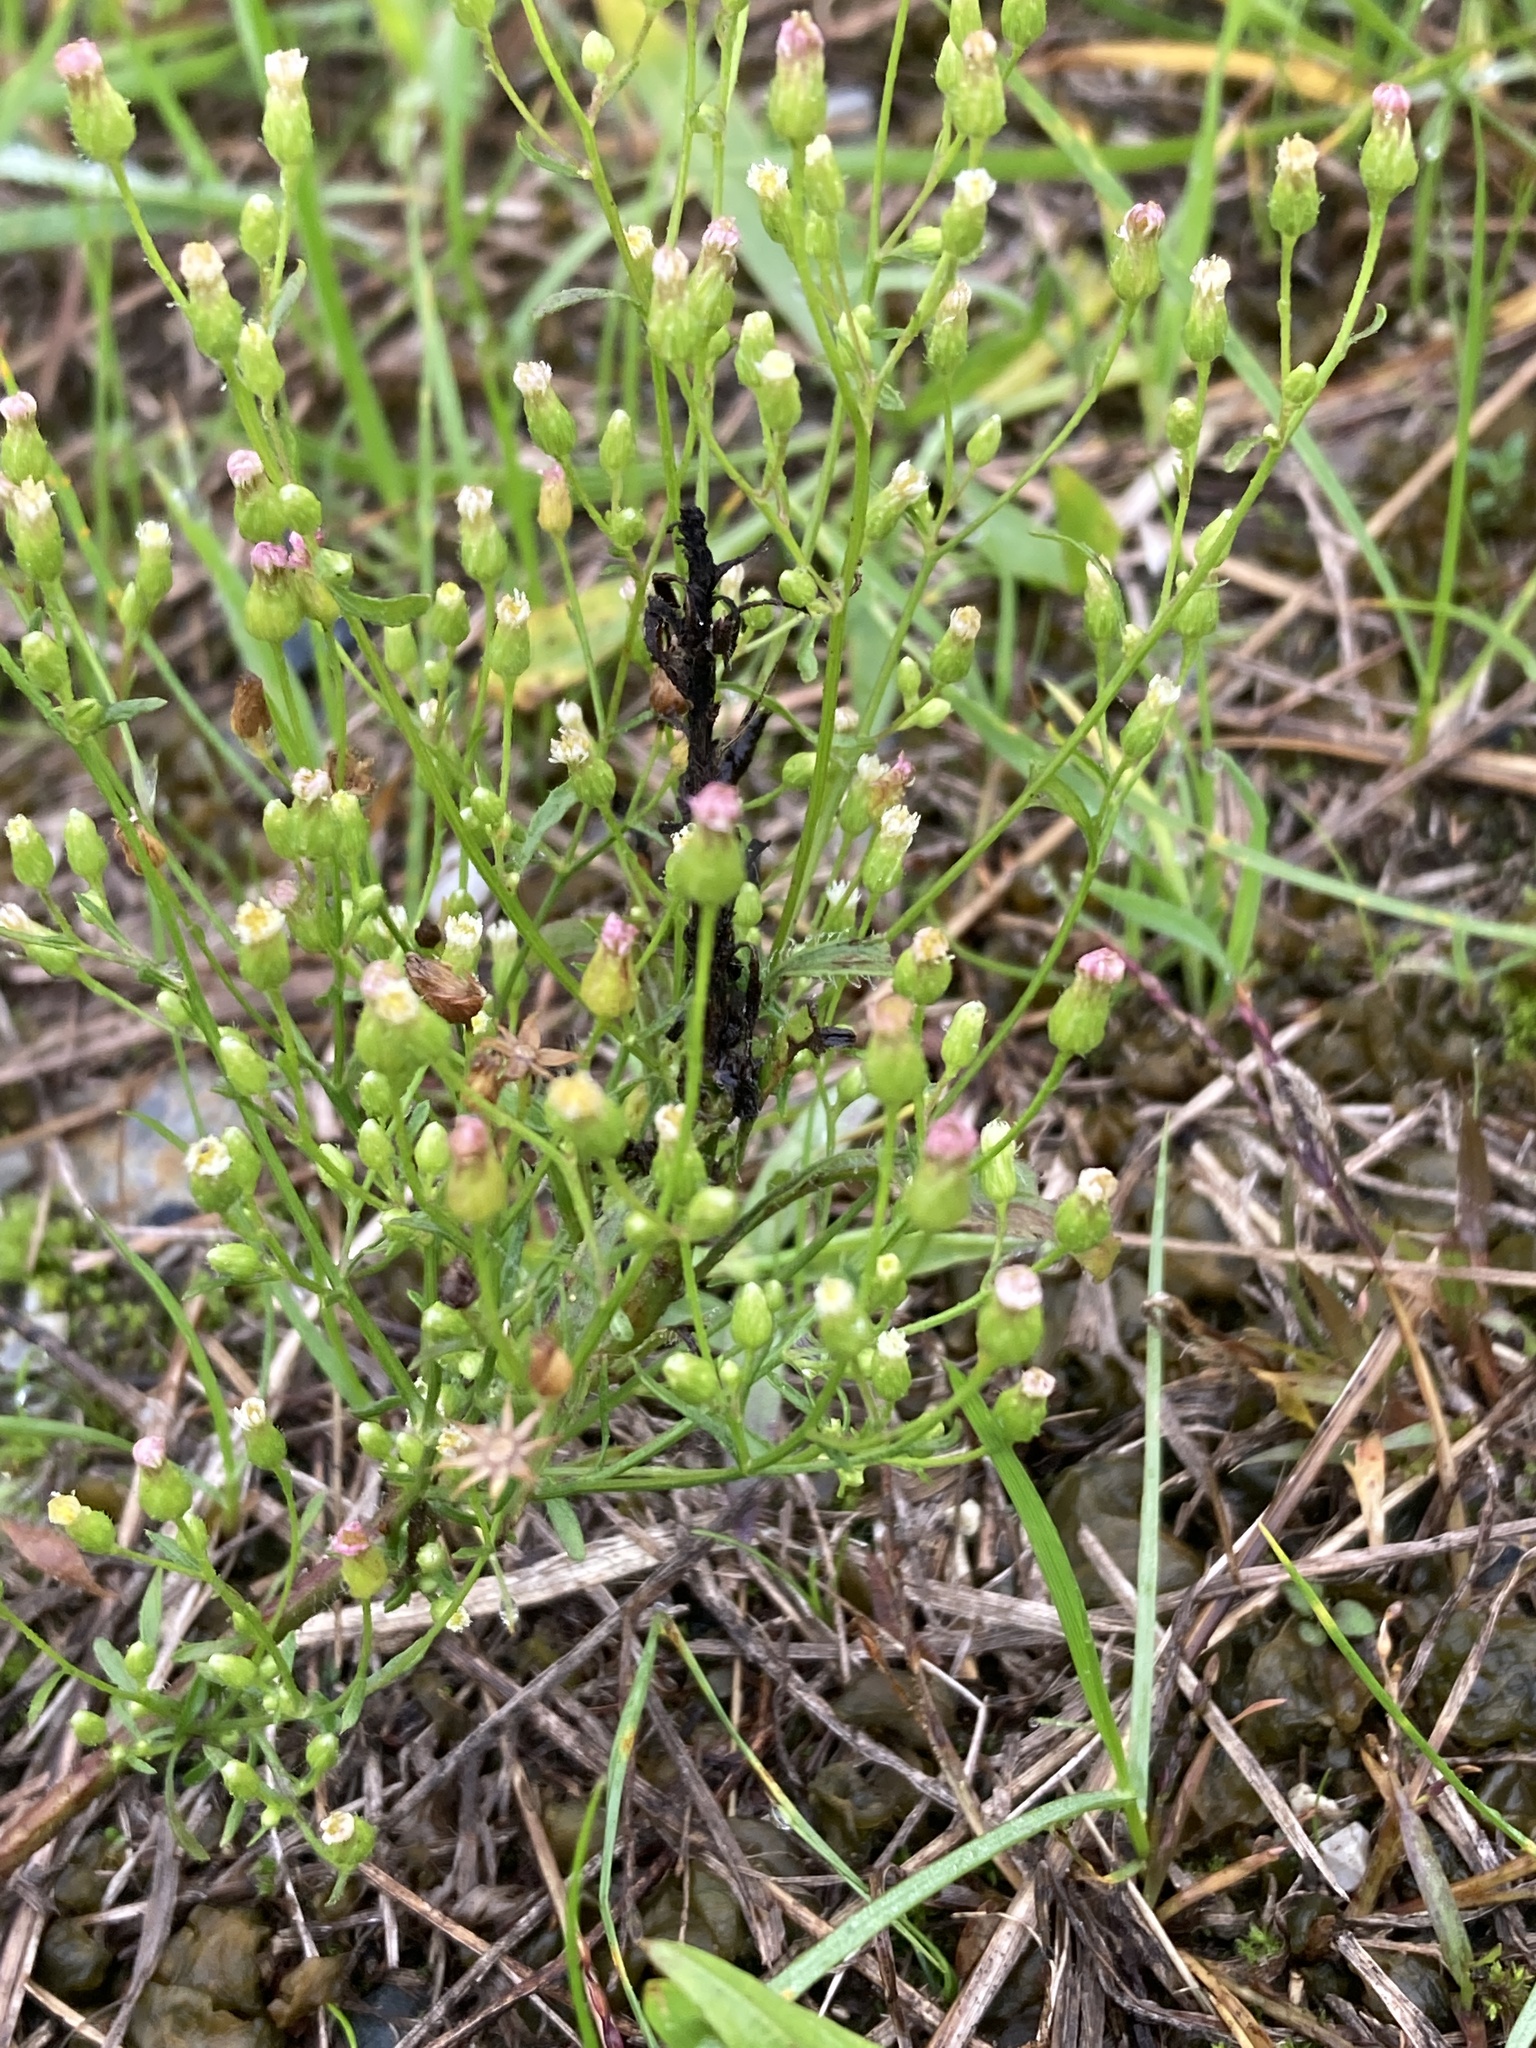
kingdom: Plantae
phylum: Tracheophyta
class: Magnoliopsida
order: Asterales
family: Asteraceae
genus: Erigeron
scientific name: Erigeron canadensis
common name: Canadian fleabane
